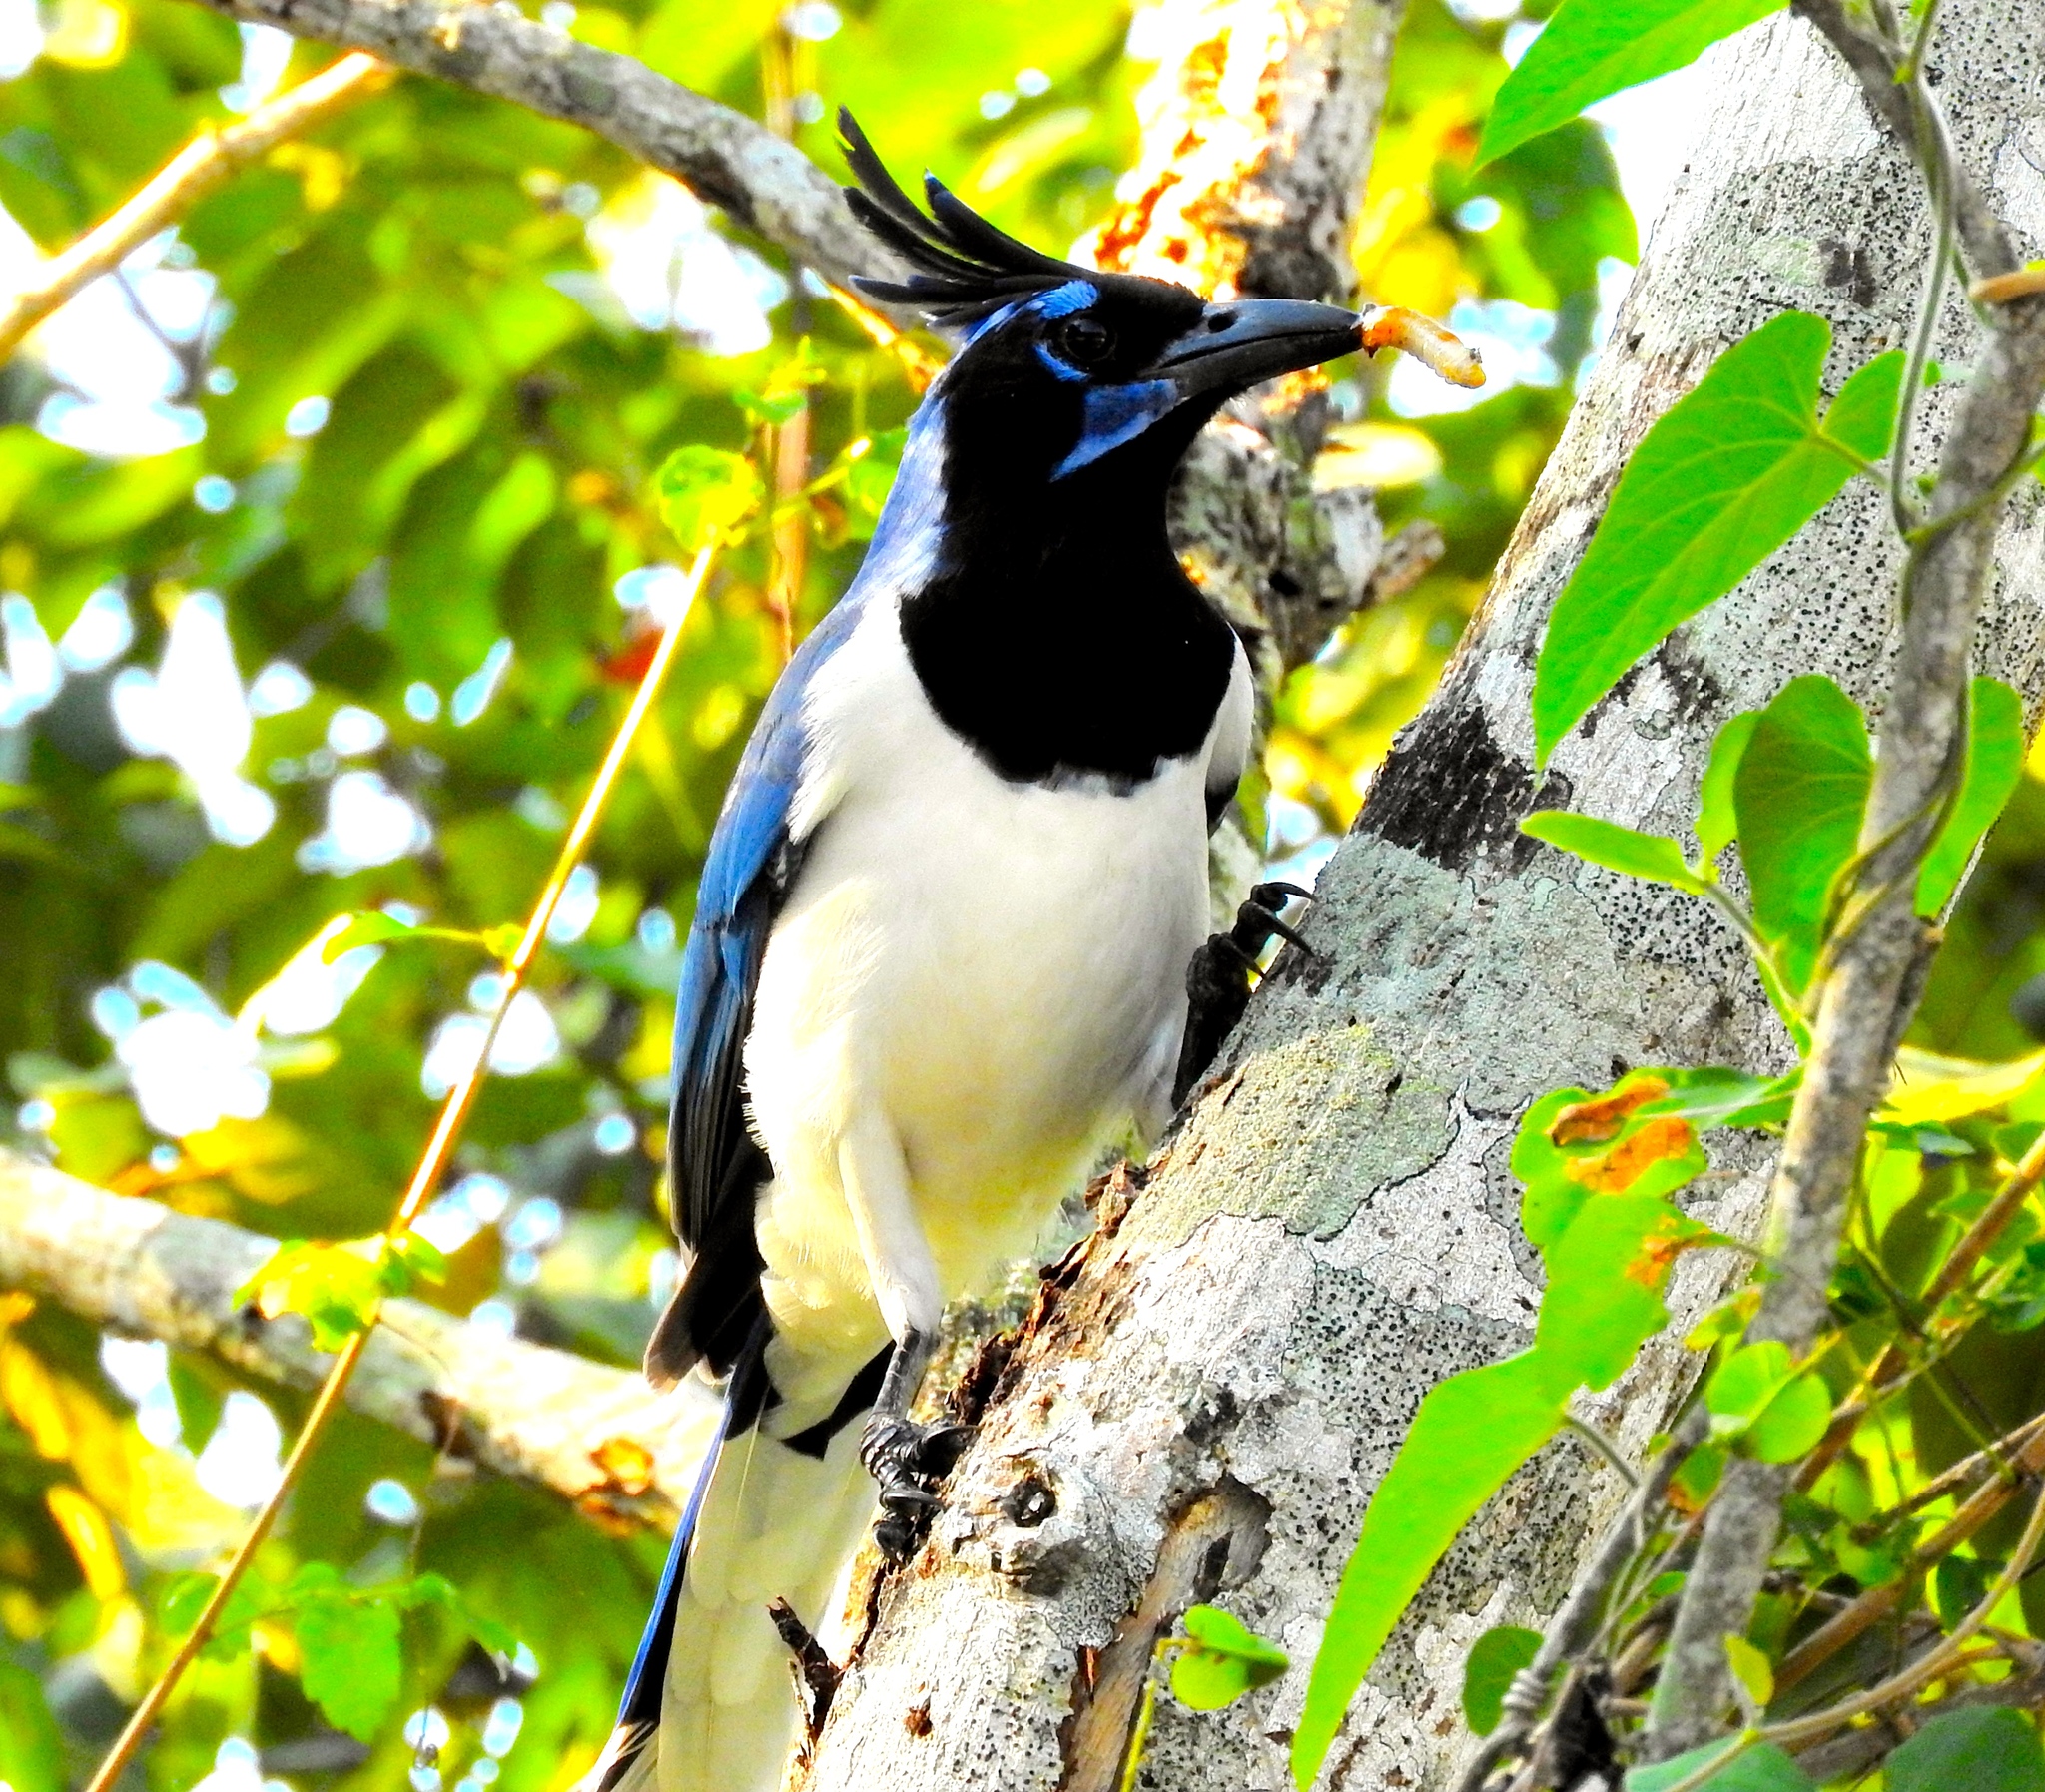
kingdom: Animalia
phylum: Chordata
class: Aves
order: Passeriformes
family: Corvidae
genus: Calocitta
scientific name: Calocitta colliei
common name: Black-throated magpie-jay
